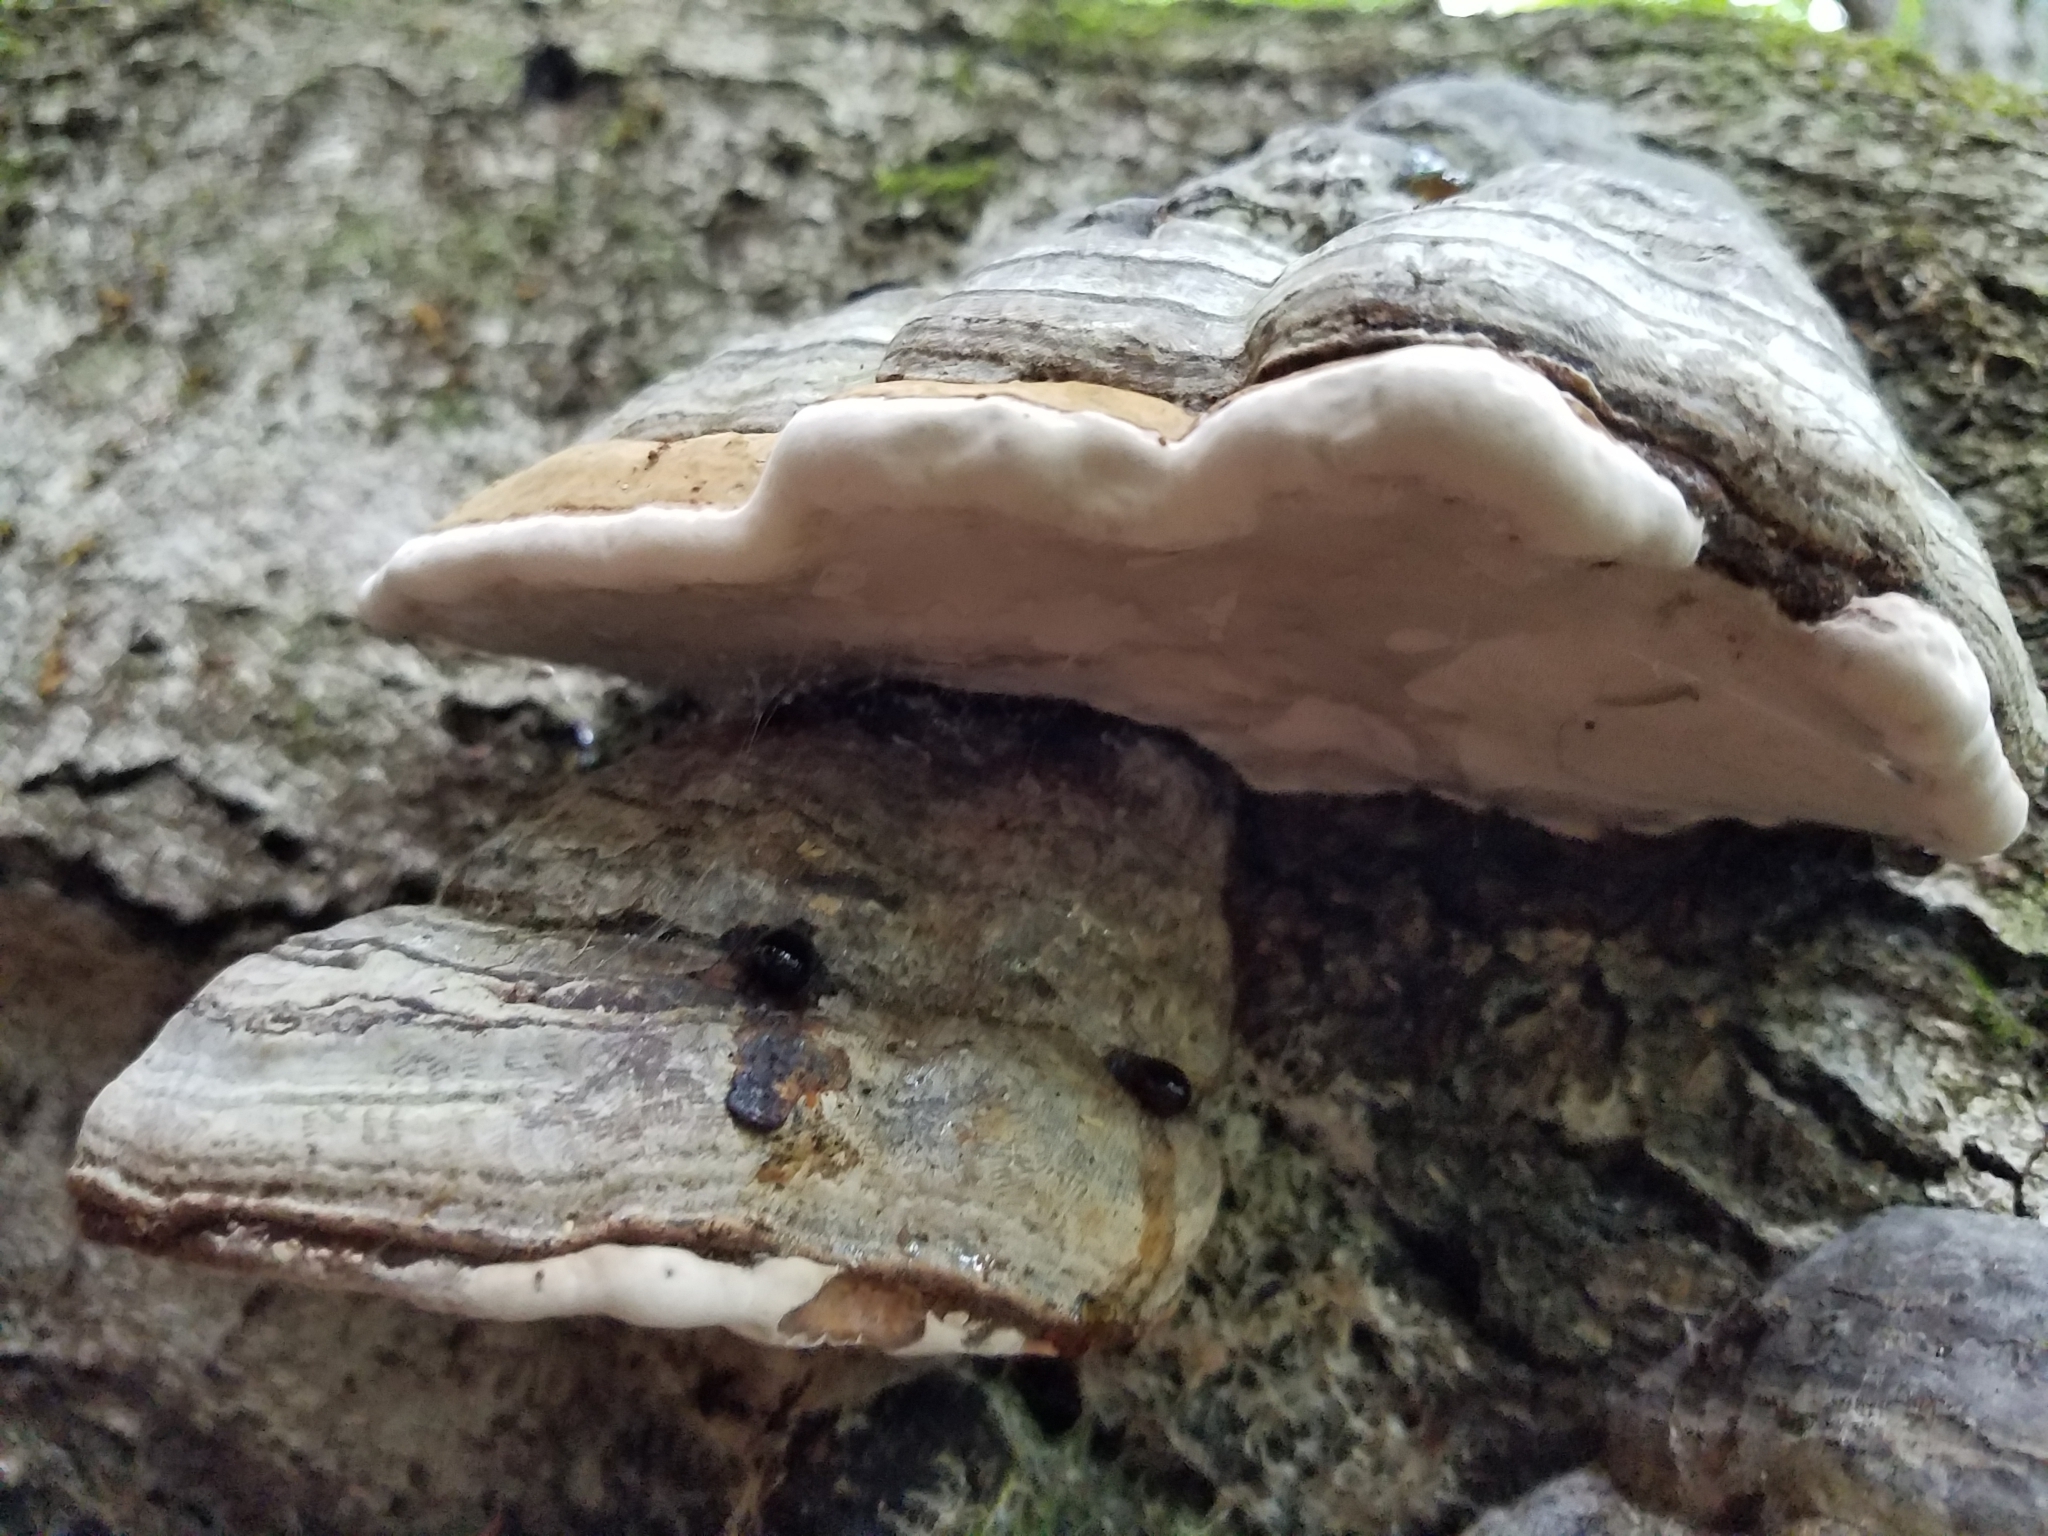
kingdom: Fungi
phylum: Basidiomycota
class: Agaricomycetes
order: Polyporales
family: Polyporaceae
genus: Fomes
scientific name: Fomes fomentarius
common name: Hoof fungus
